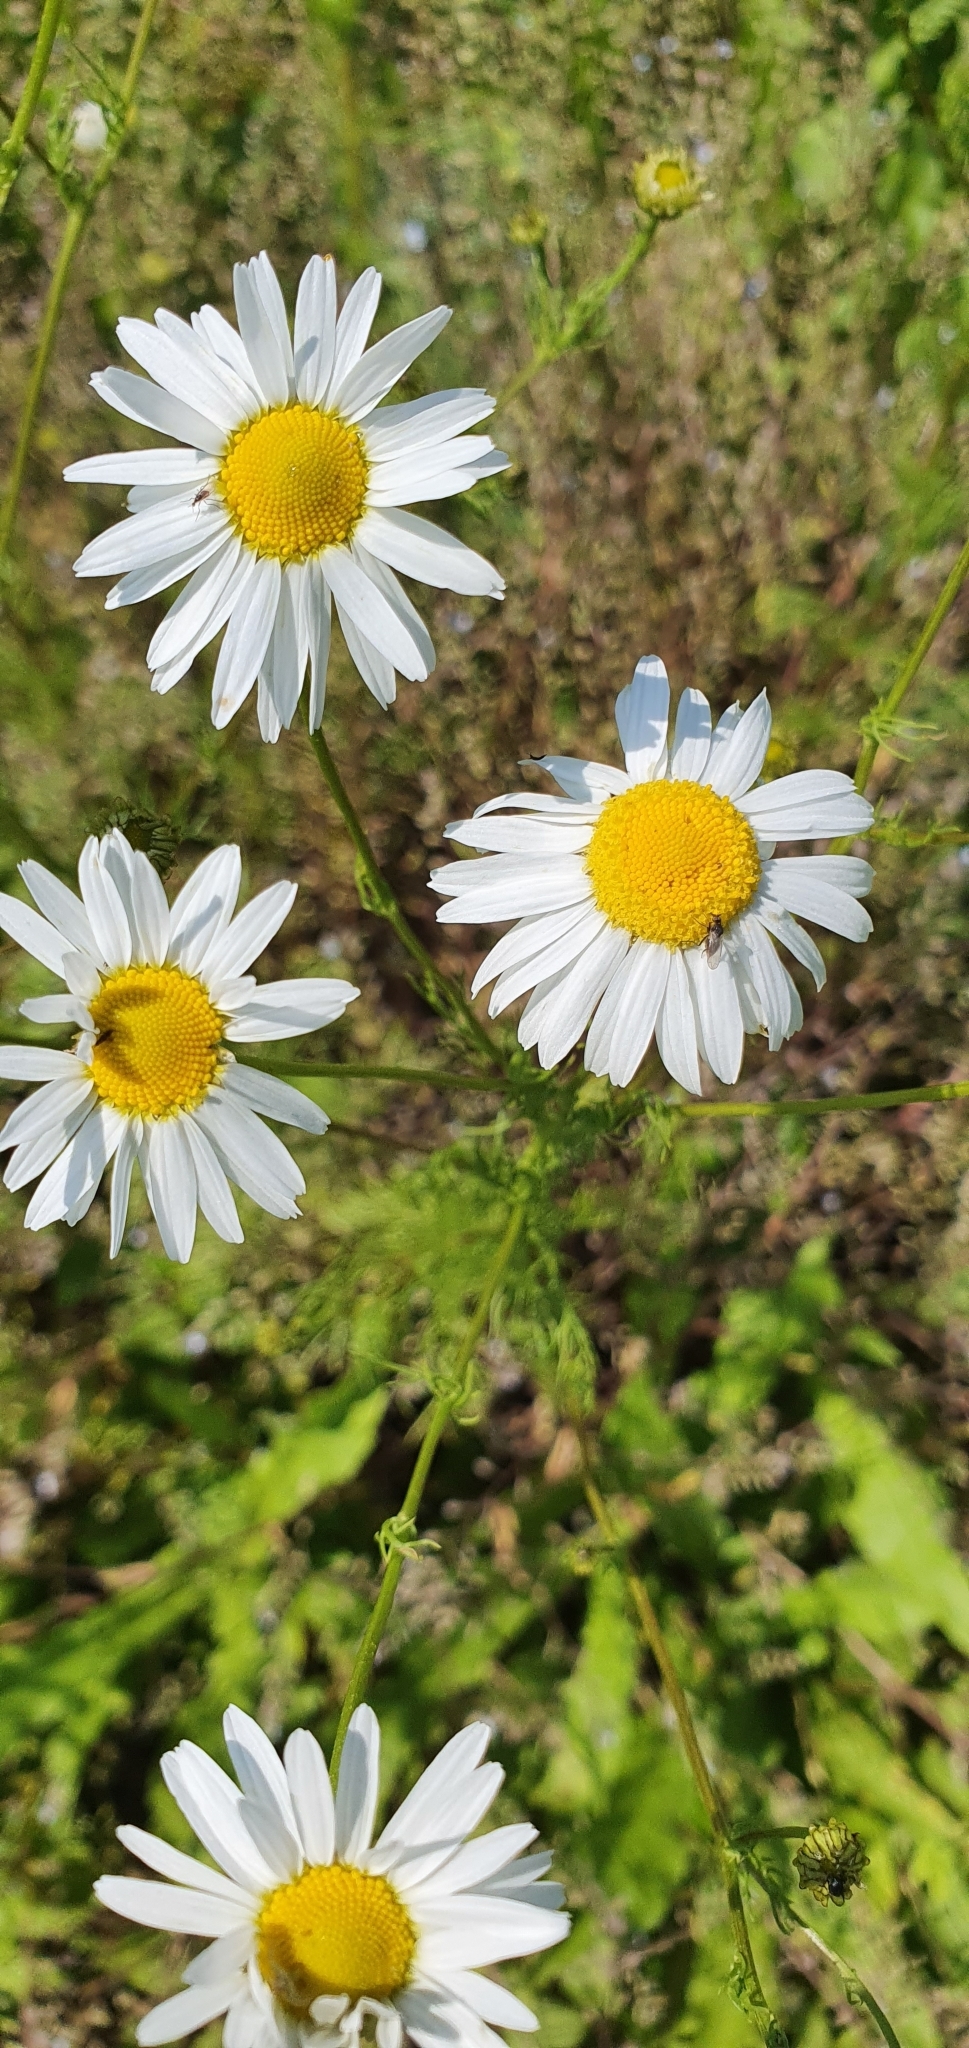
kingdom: Plantae
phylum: Tracheophyta
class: Magnoliopsida
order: Asterales
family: Asteraceae
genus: Tripleurospermum
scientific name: Tripleurospermum inodorum
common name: Scentless mayweed
